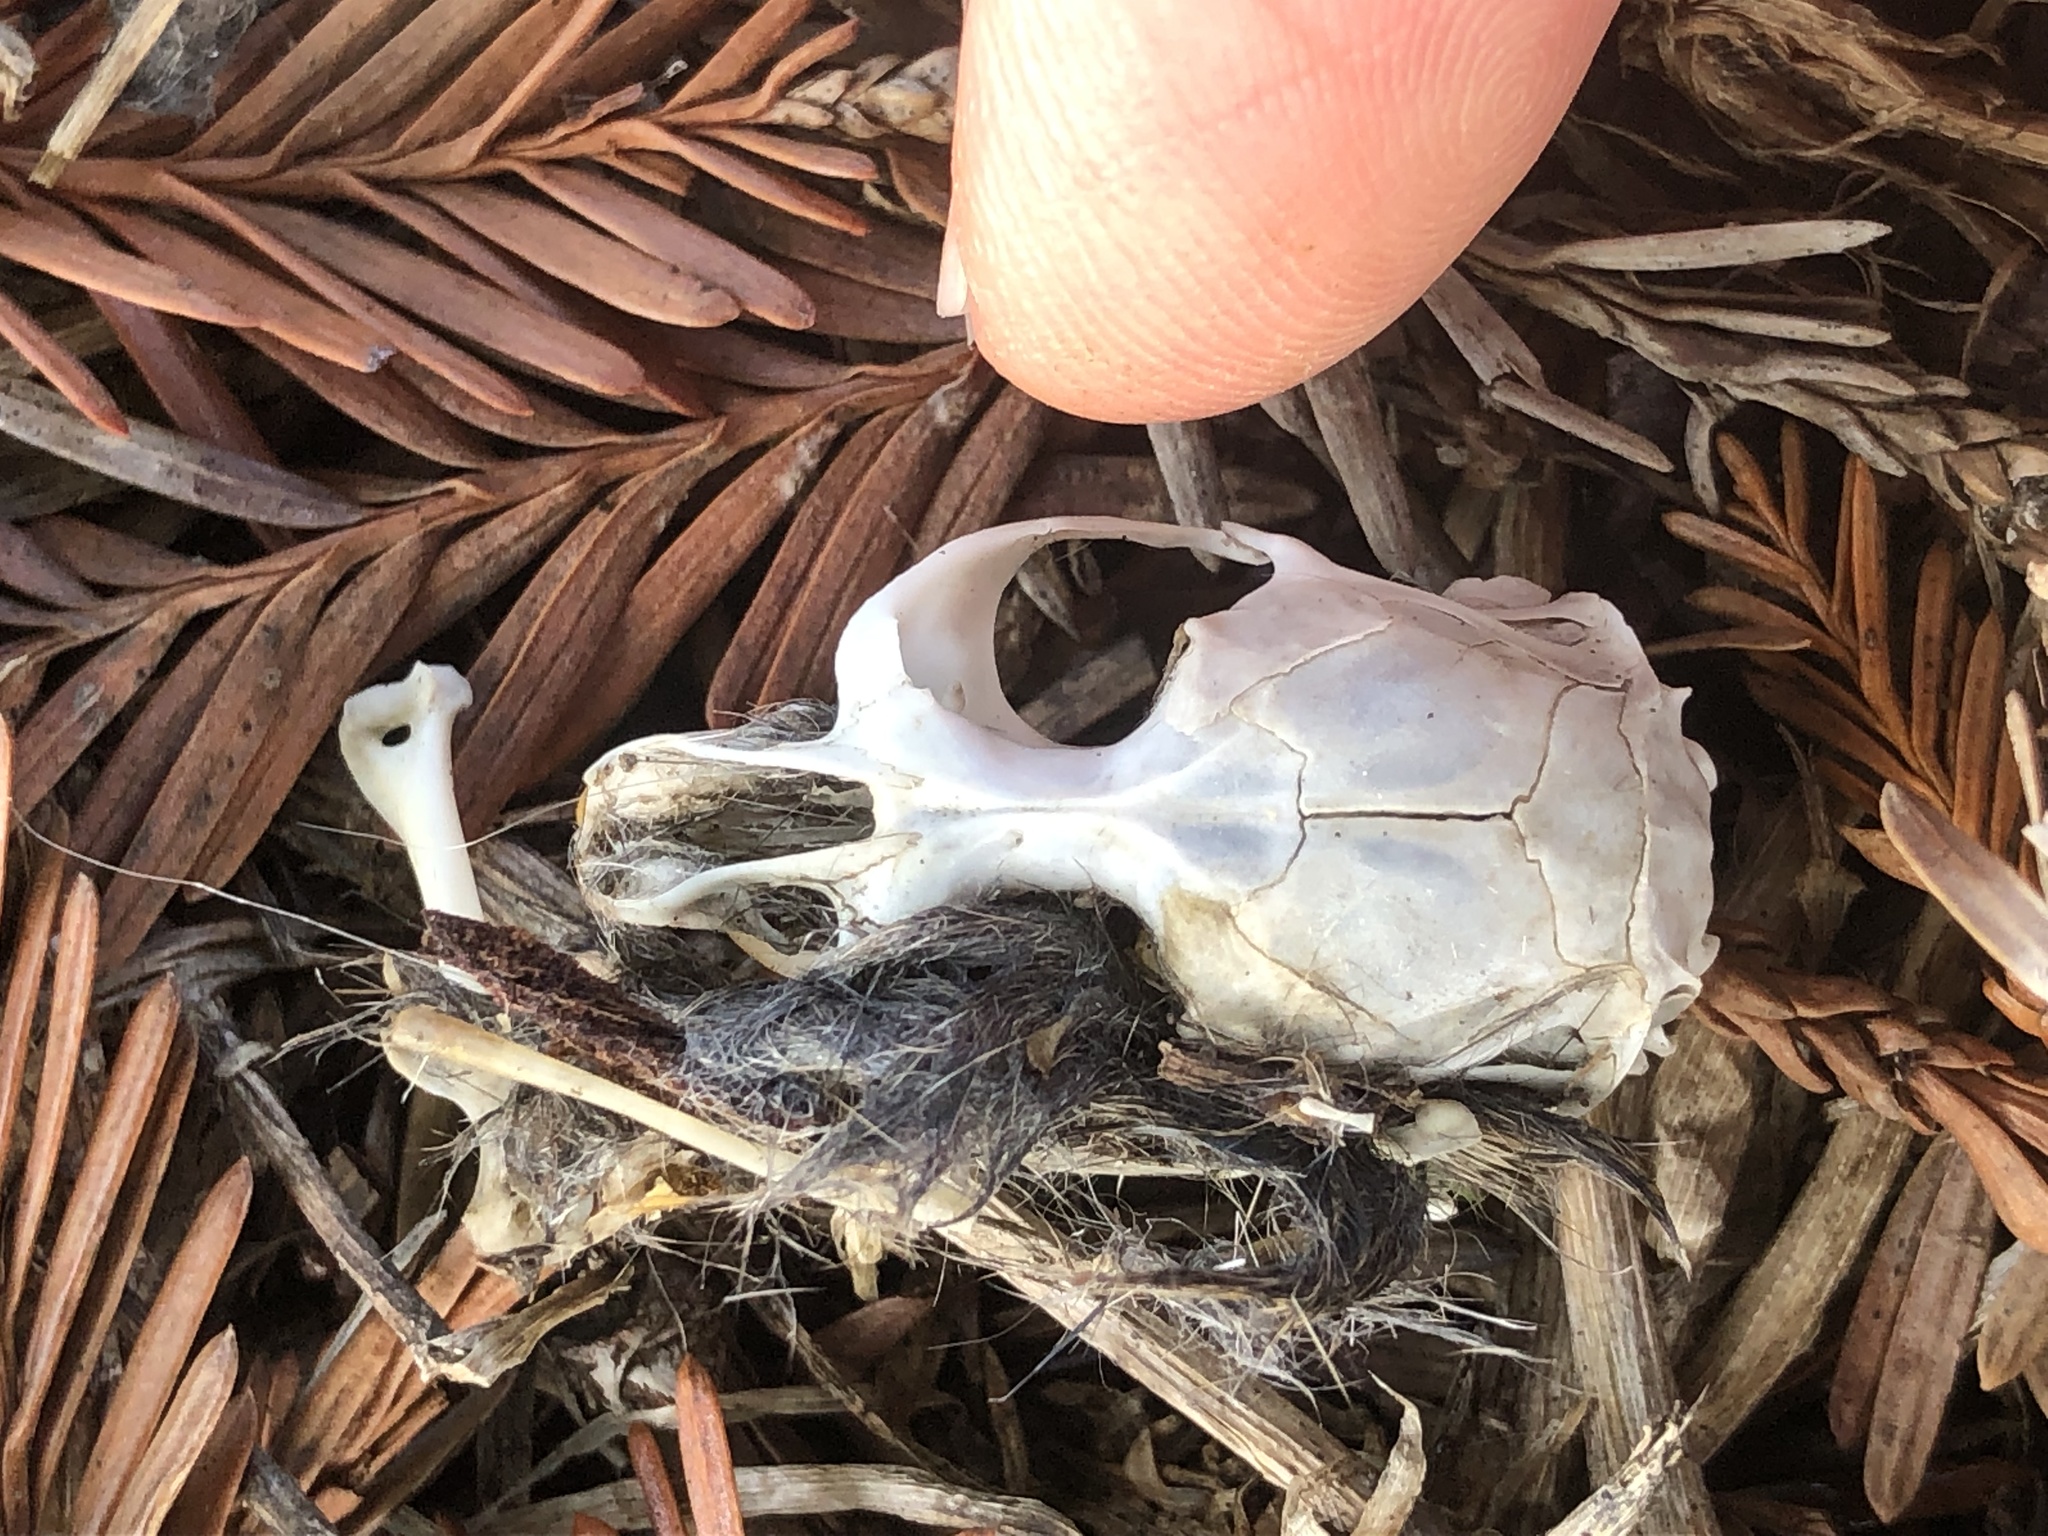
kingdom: Animalia
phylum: Chordata
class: Mammalia
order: Rodentia
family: Cricetidae
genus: Microtus
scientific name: Microtus californicus
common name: California vole
